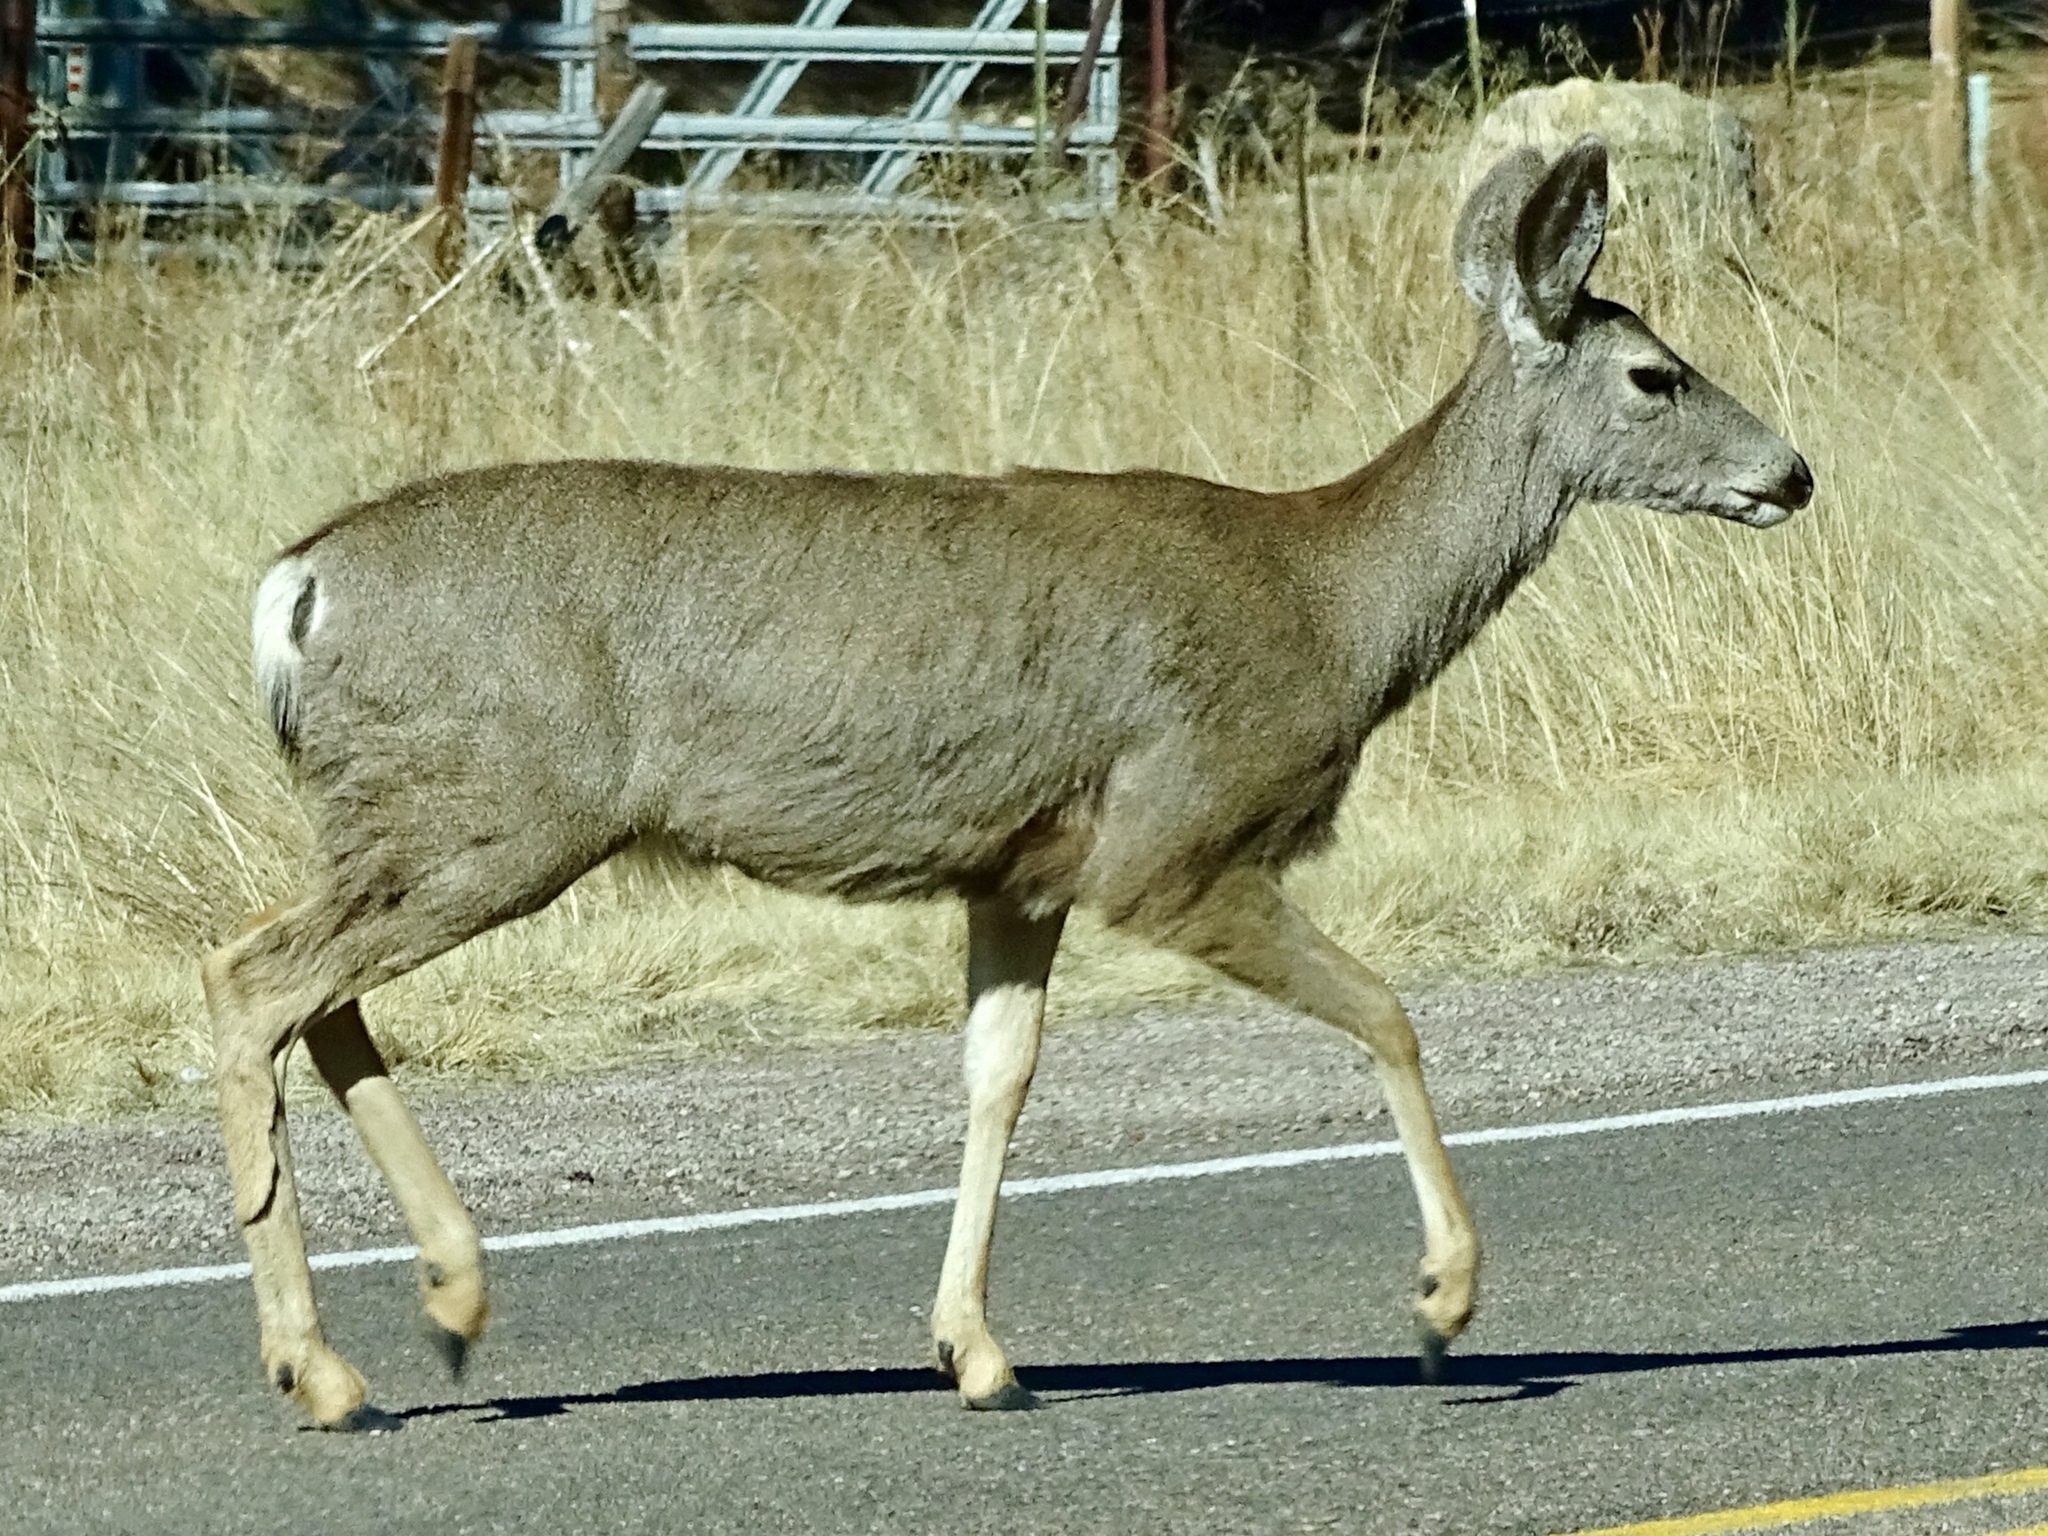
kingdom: Animalia
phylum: Chordata
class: Mammalia
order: Artiodactyla
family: Cervidae
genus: Odocoileus
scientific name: Odocoileus hemionus
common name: Mule deer
